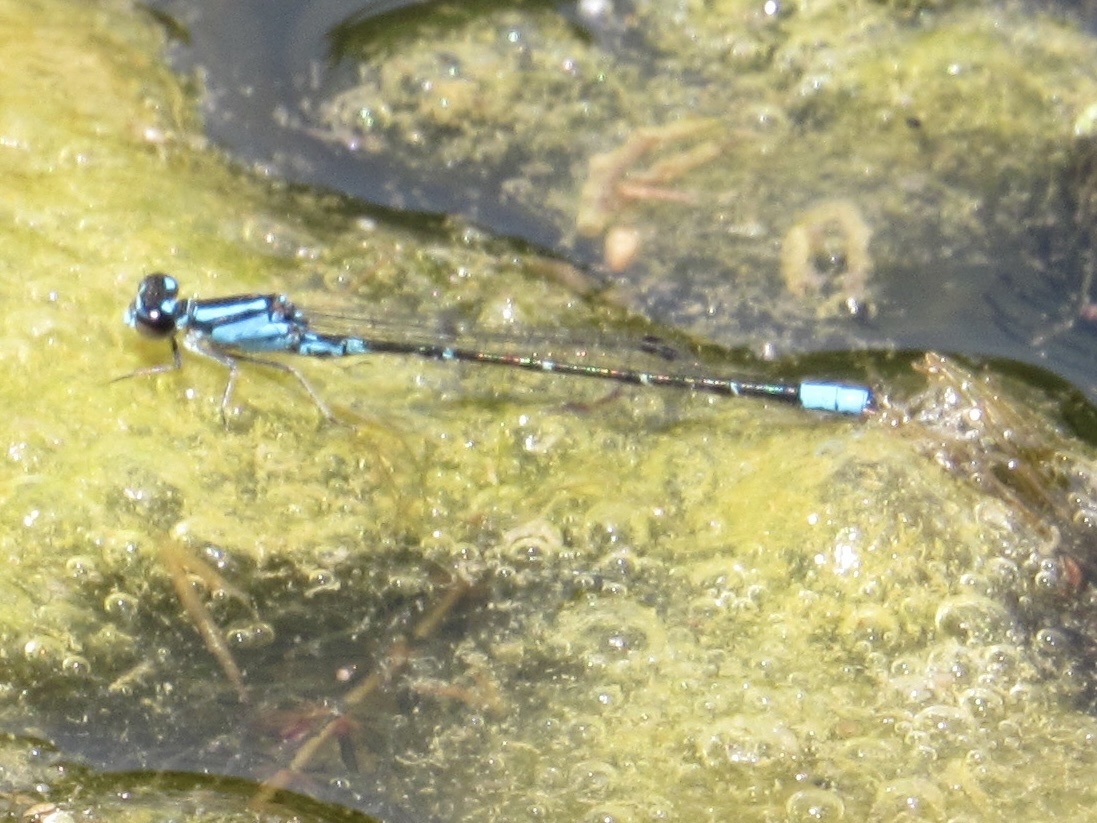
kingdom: Animalia
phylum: Arthropoda
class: Insecta
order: Odonata
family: Coenagrionidae
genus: Enallagma
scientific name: Enallagma geminatum
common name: Skimming bluet
